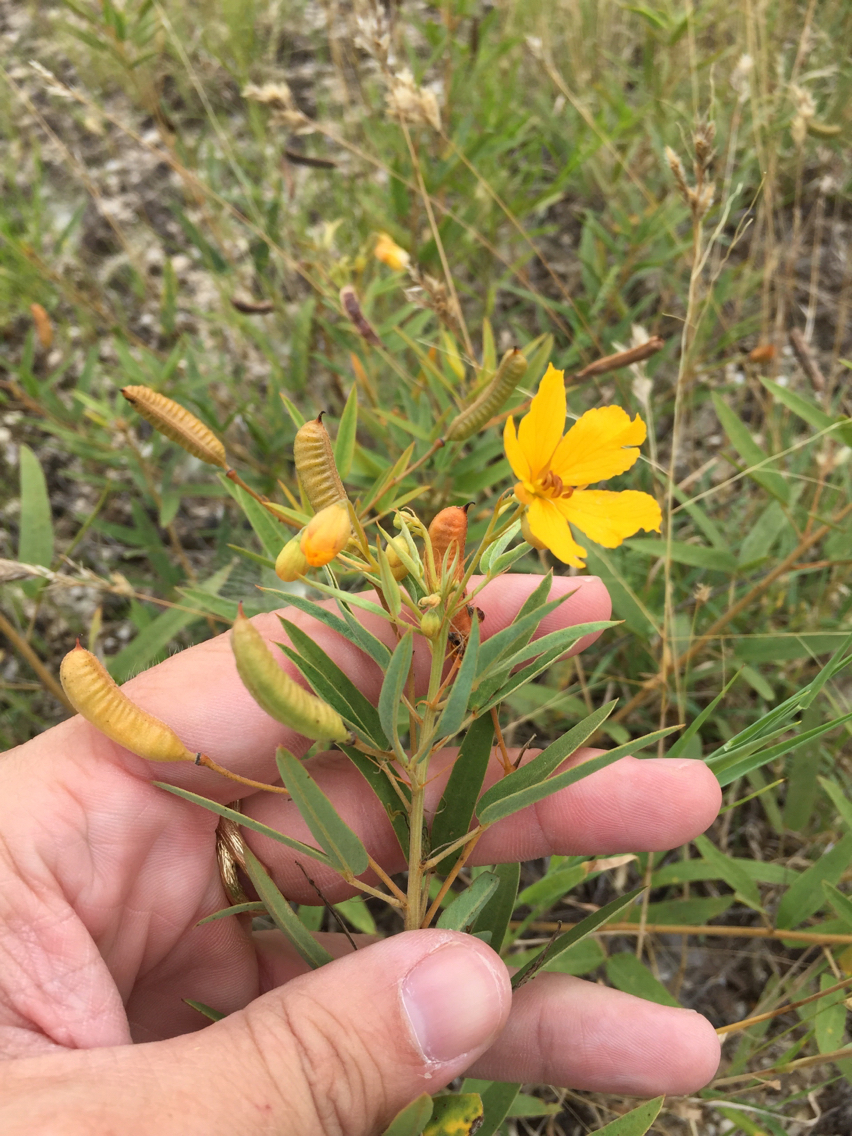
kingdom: Plantae
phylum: Tracheophyta
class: Magnoliopsida
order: Fabales
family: Fabaceae
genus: Senna
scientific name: Senna roemeriana
